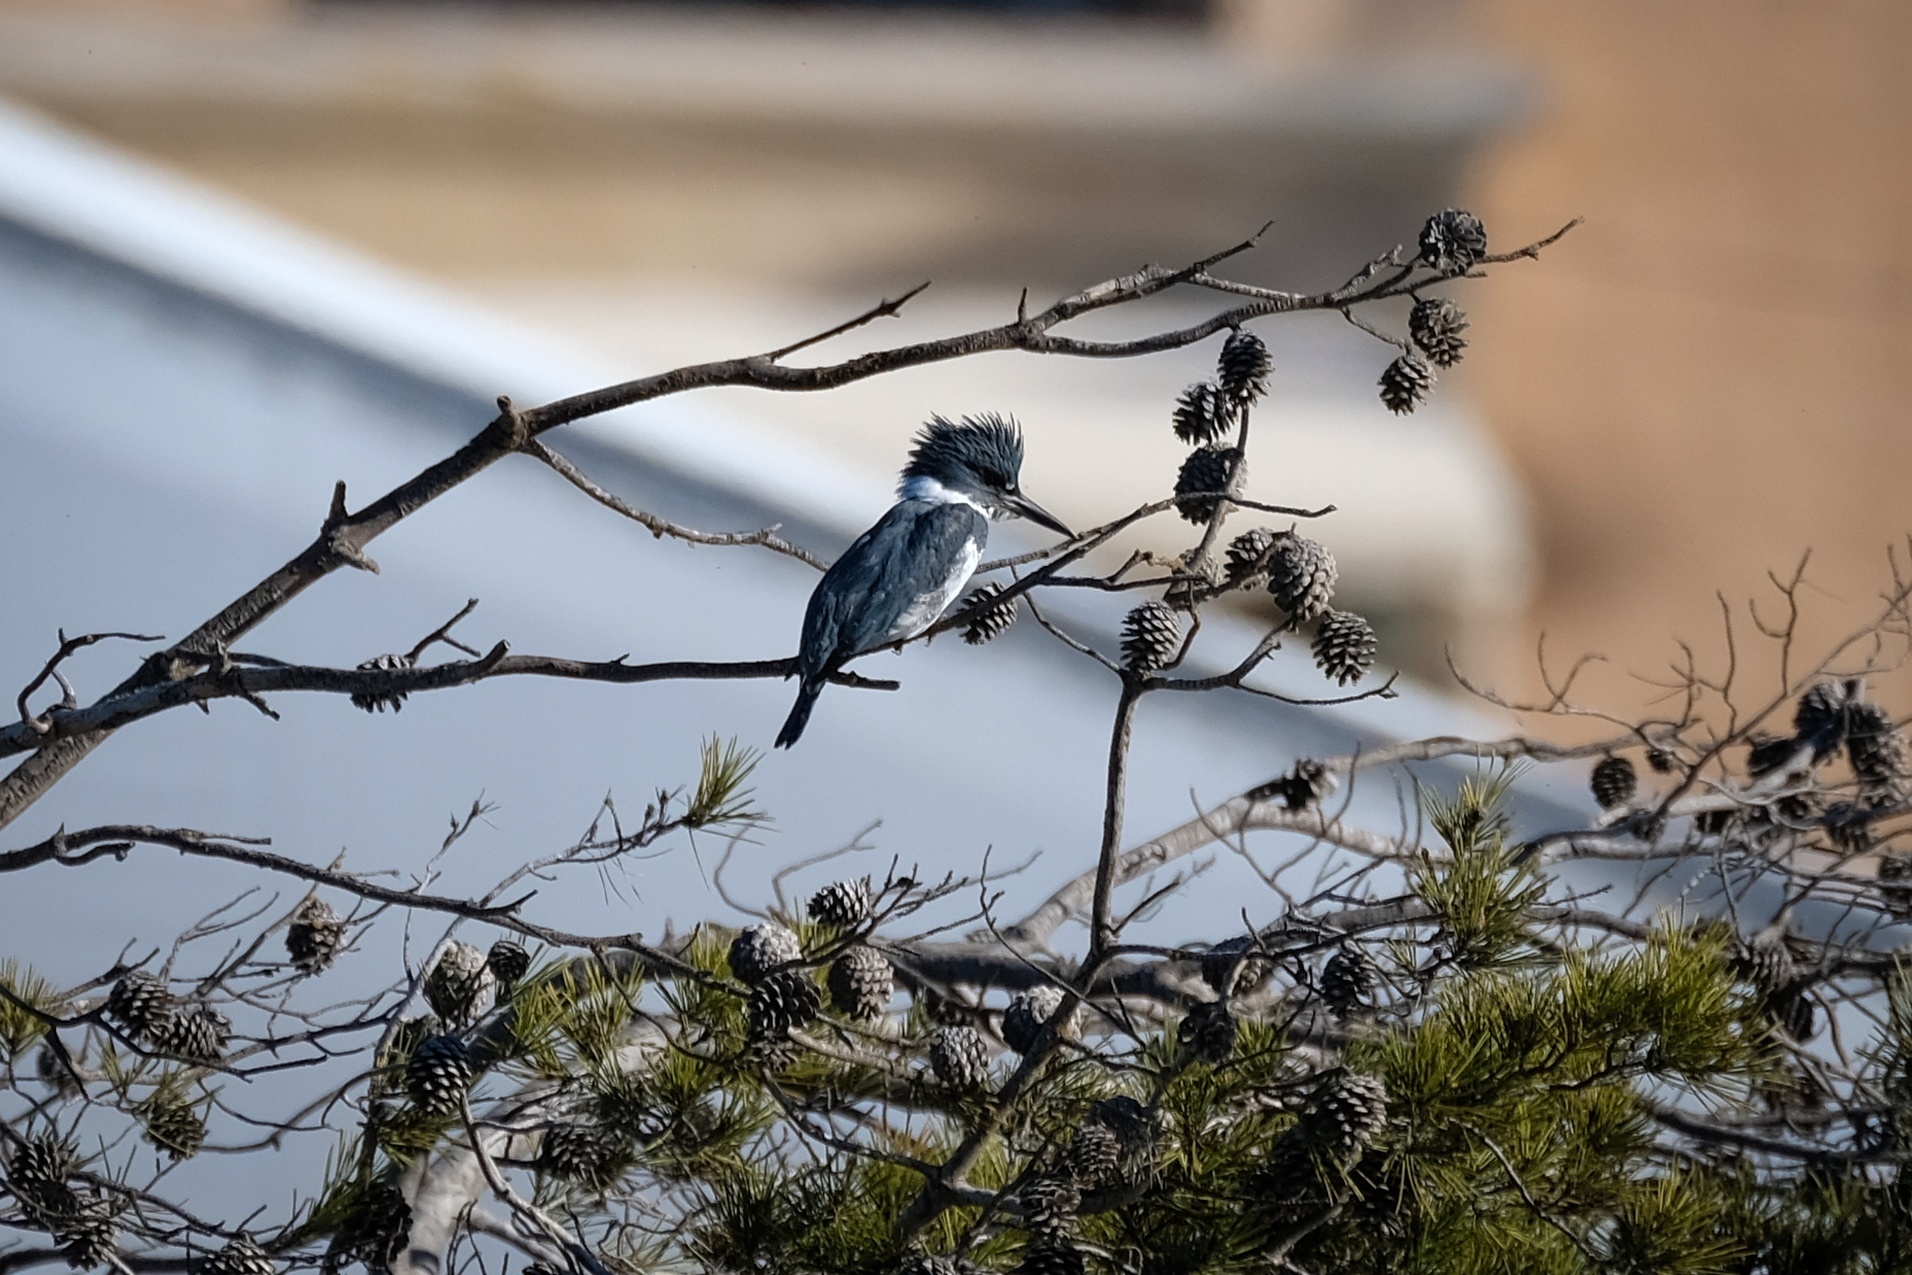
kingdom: Animalia
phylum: Chordata
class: Aves
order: Coraciiformes
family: Alcedinidae
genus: Megaceryle
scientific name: Megaceryle alcyon
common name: Belted kingfisher
